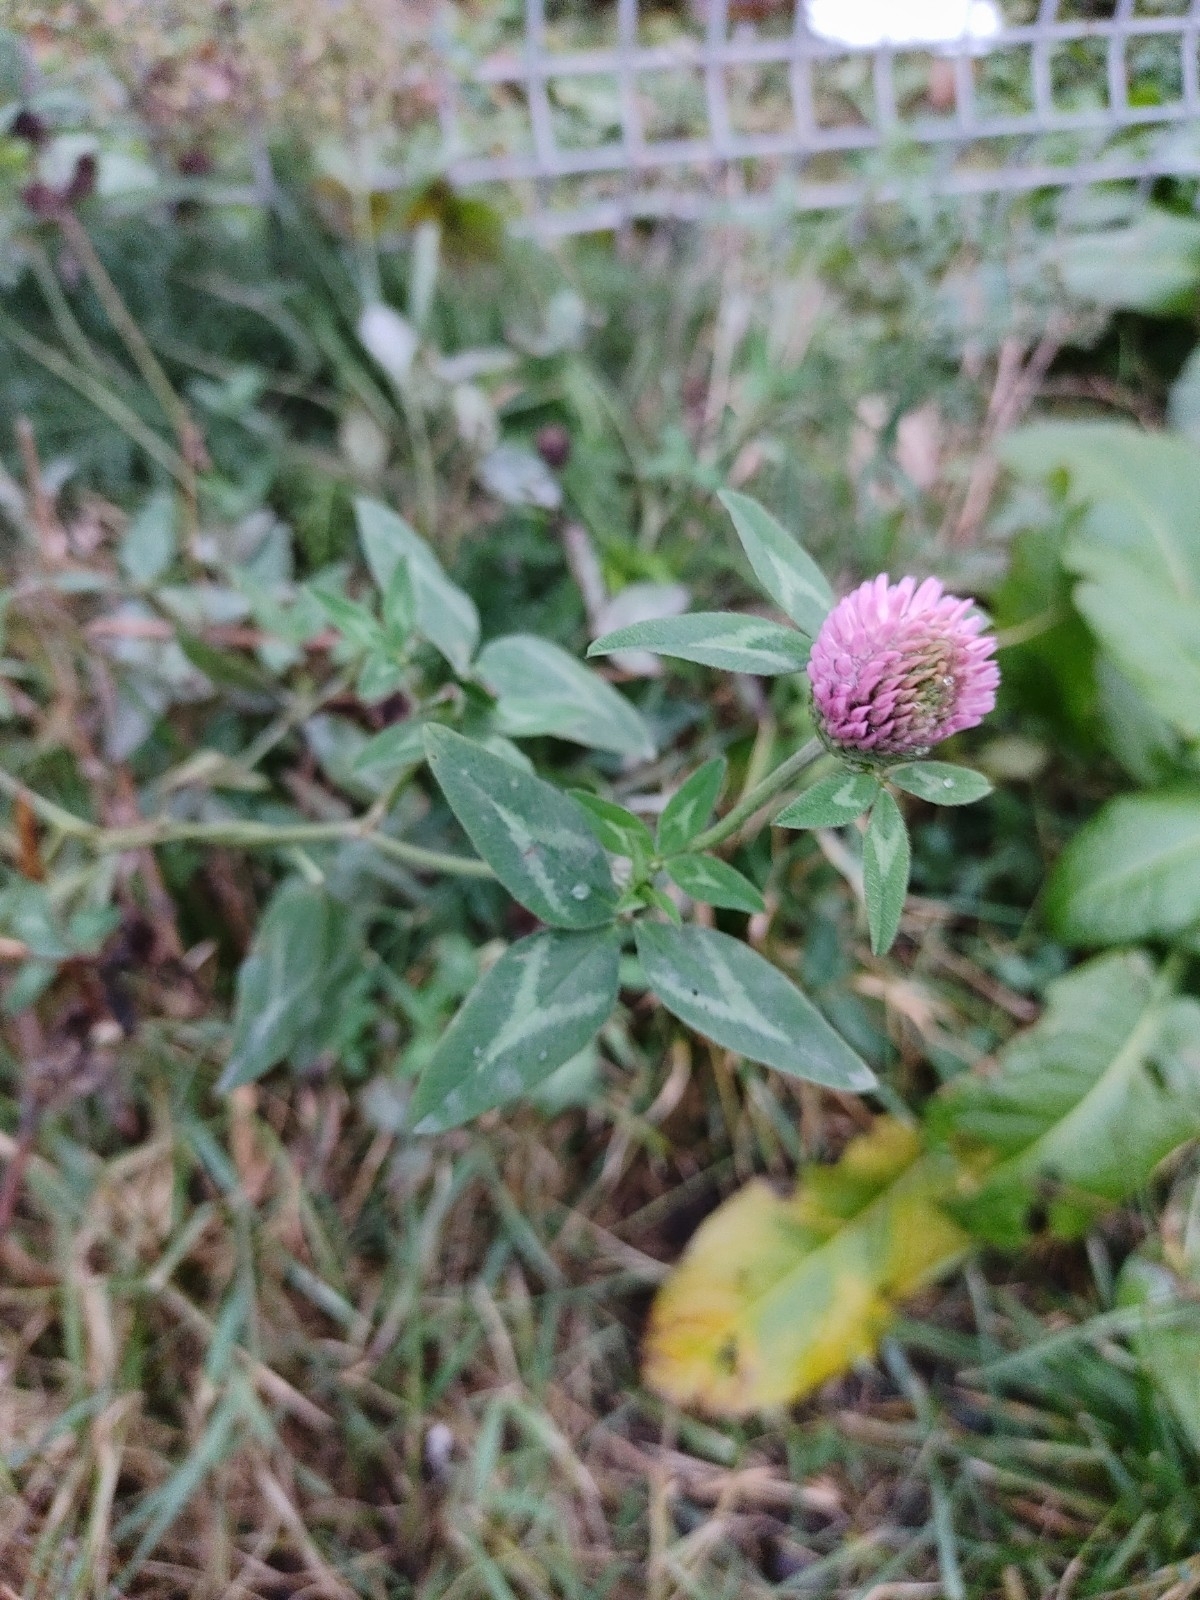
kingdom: Plantae
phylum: Tracheophyta
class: Magnoliopsida
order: Fabales
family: Fabaceae
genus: Trifolium
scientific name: Trifolium pratense
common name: Red clover
